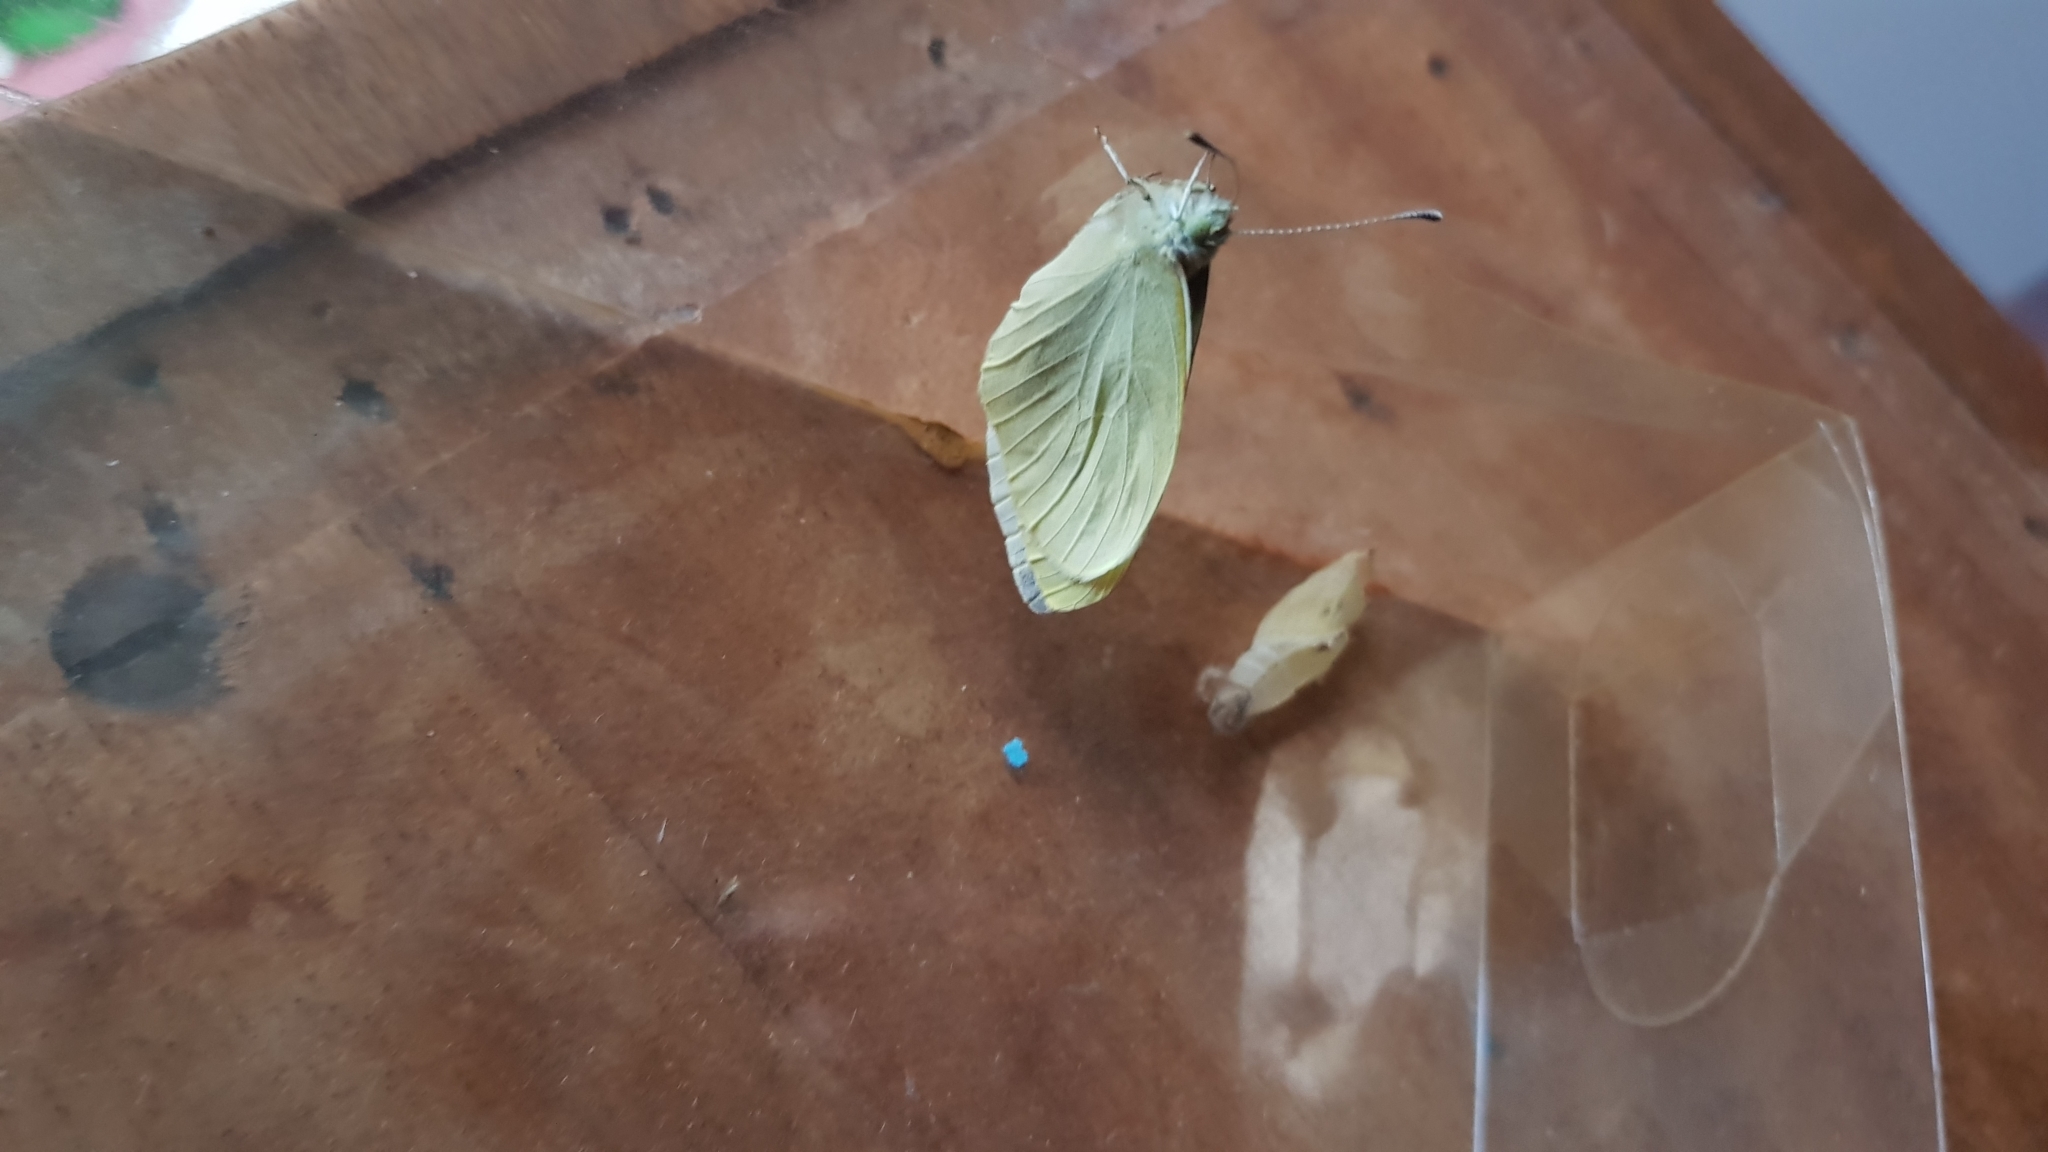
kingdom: Animalia
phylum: Arthropoda
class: Insecta
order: Lepidoptera
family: Pieridae
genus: Pieris
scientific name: Pieris rapae
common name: Small white
